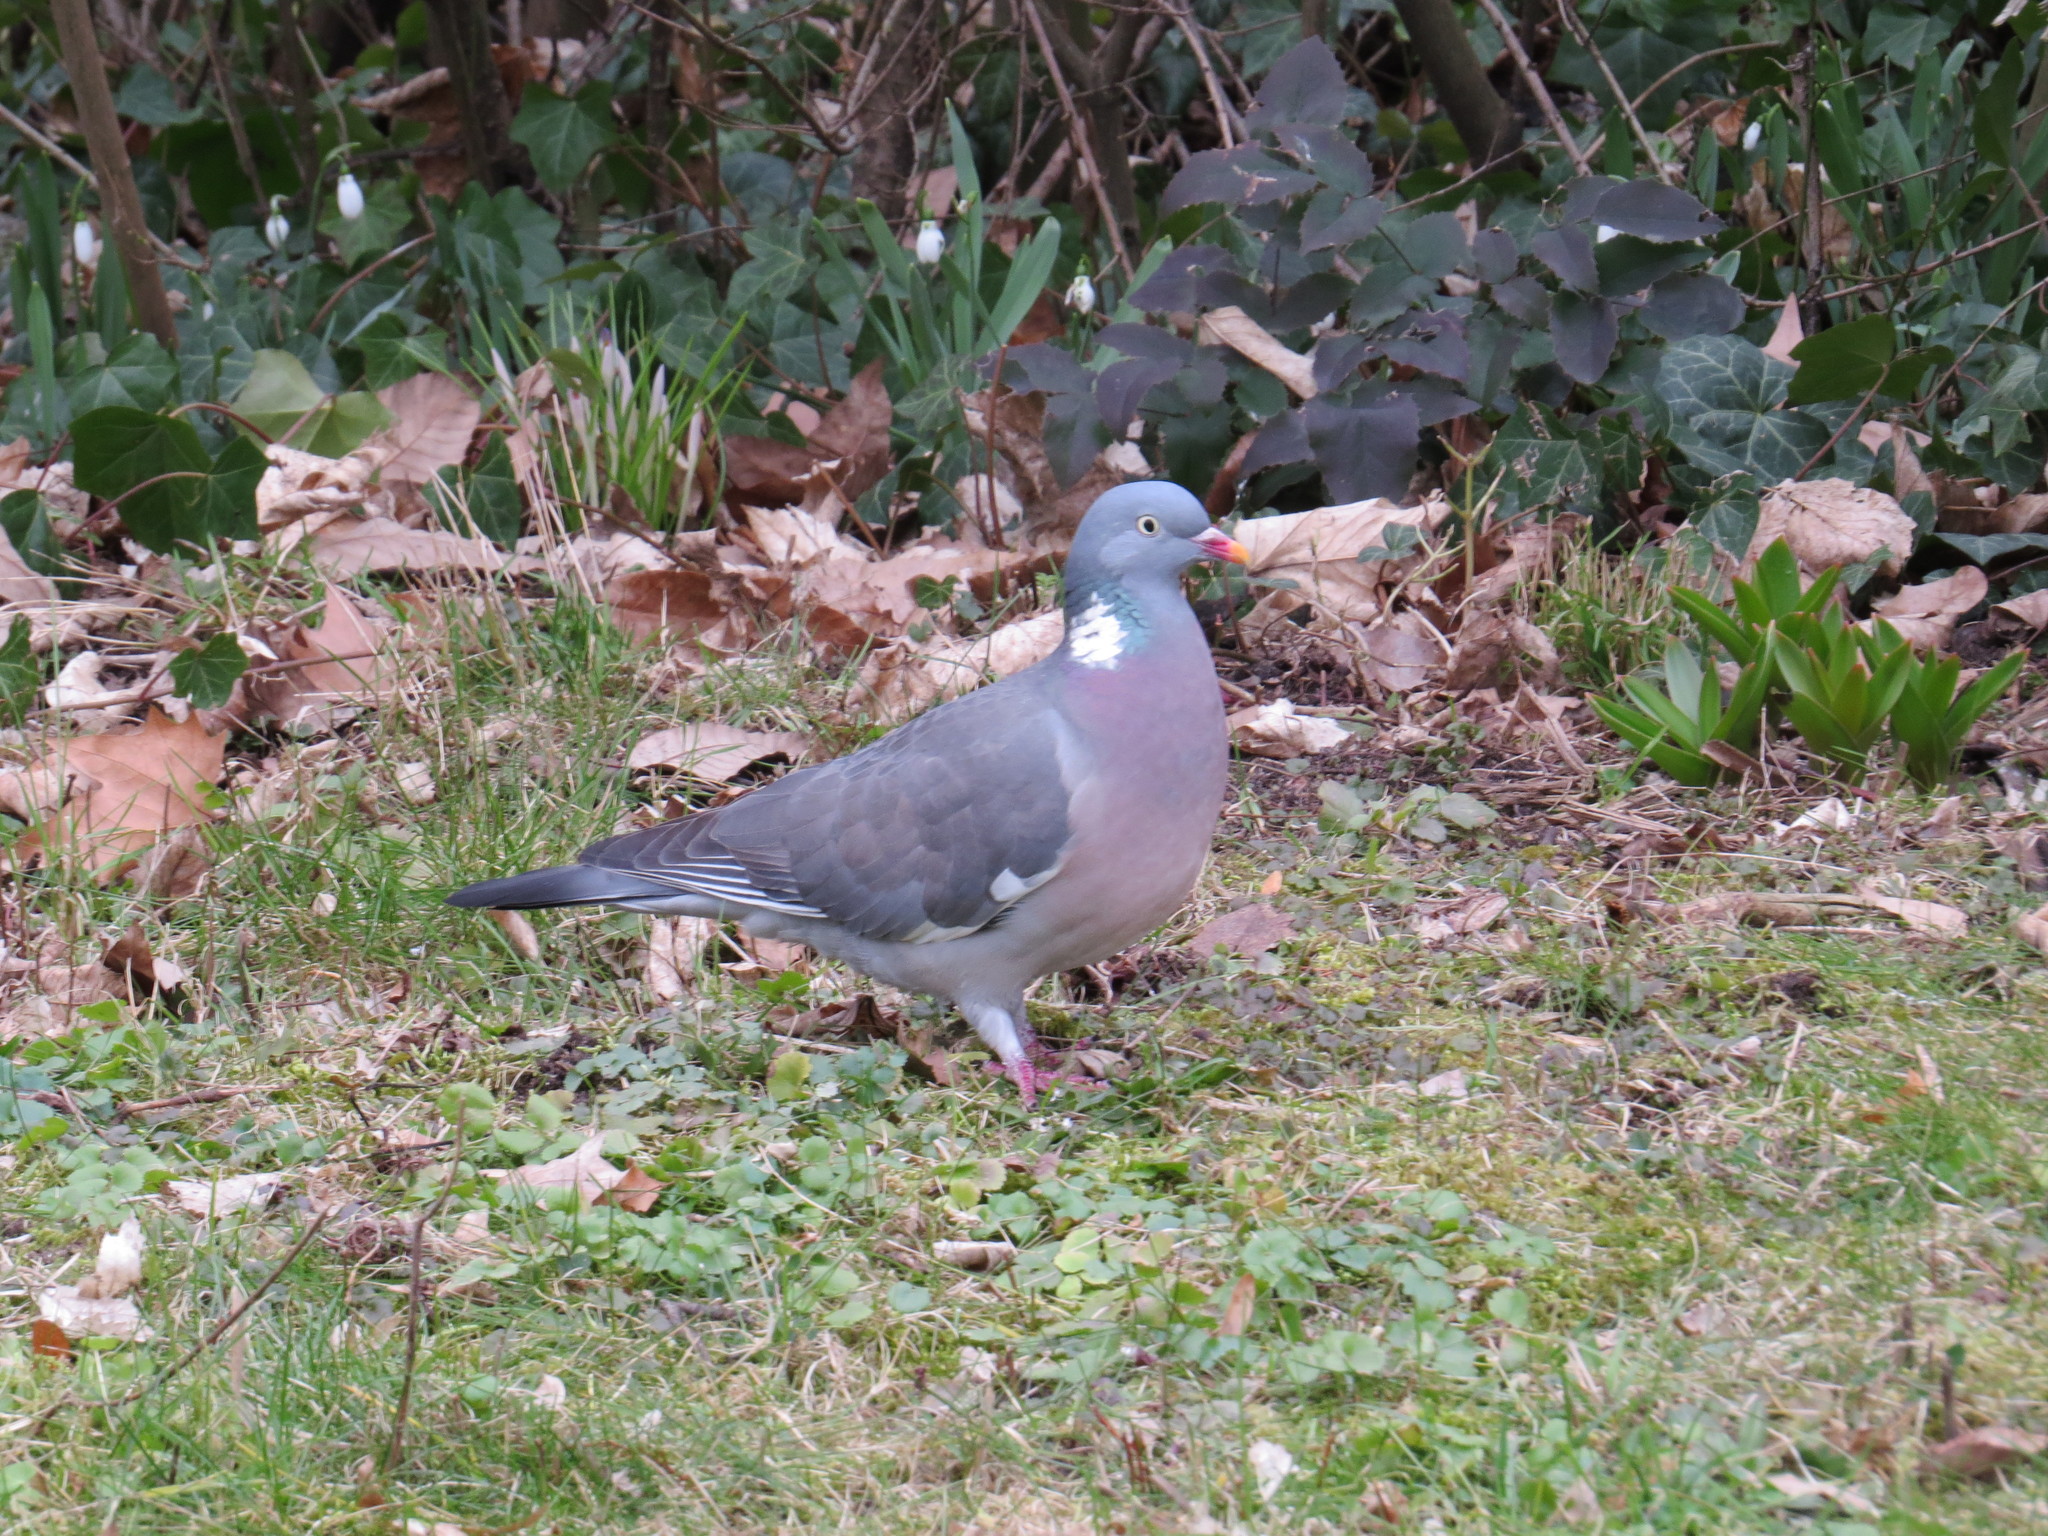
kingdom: Animalia
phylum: Chordata
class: Aves
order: Columbiformes
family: Columbidae
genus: Columba
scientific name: Columba palumbus
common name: Common wood pigeon
